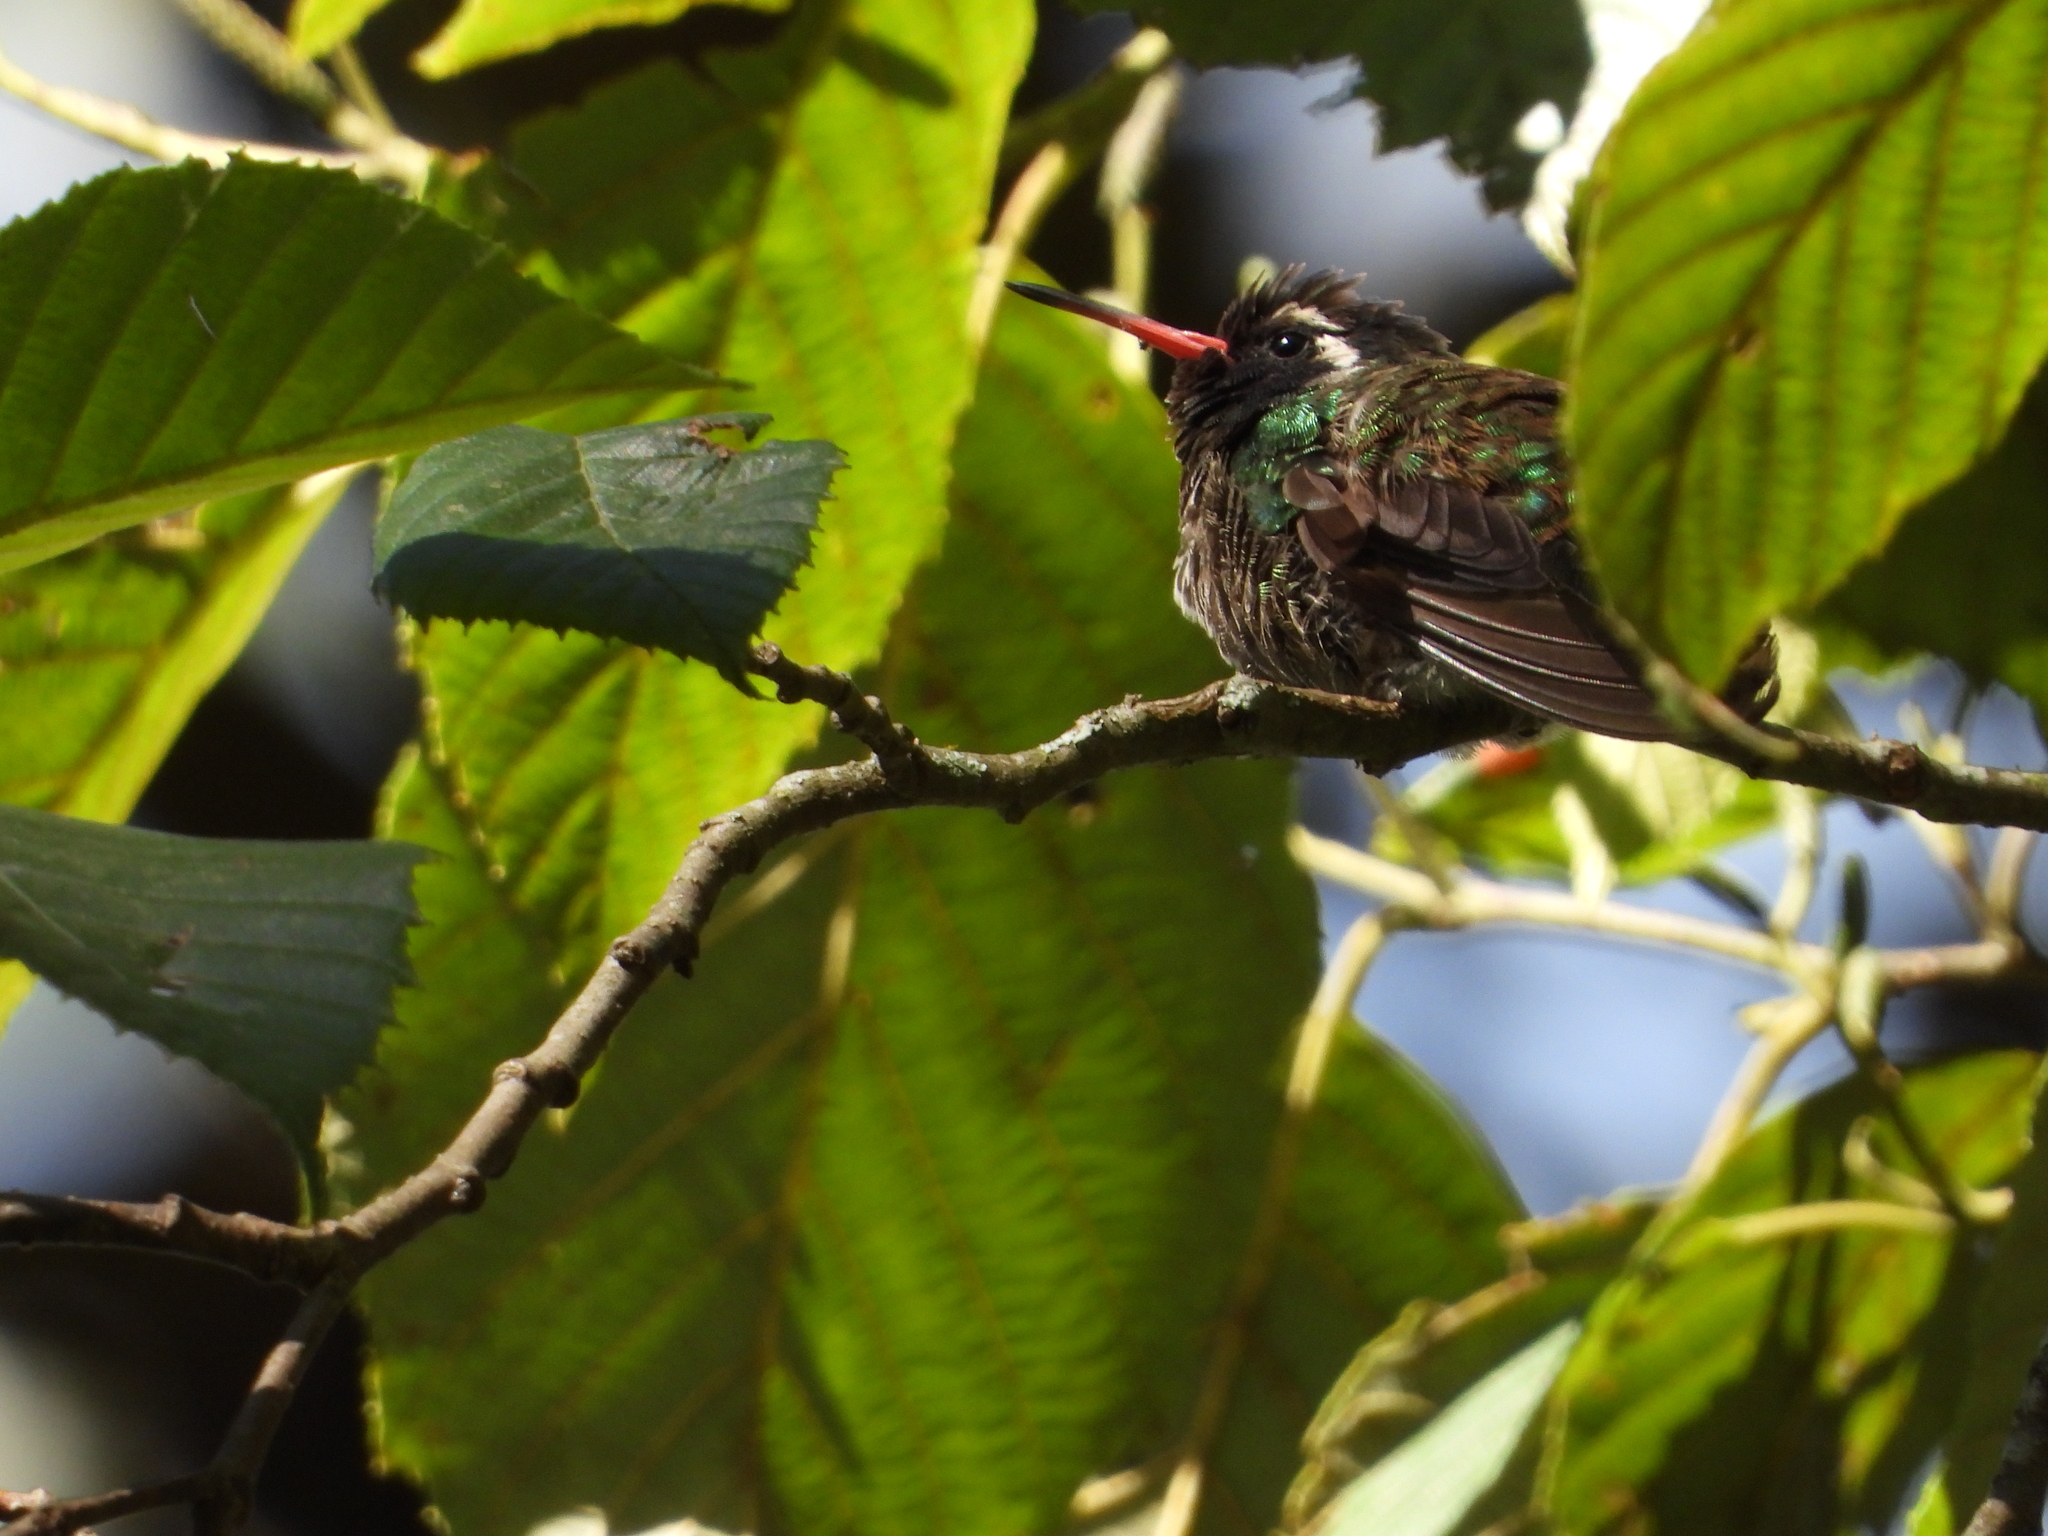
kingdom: Animalia
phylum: Chordata
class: Aves
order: Apodiformes
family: Trochilidae
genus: Basilinna
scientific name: Basilinna leucotis
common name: White-eared hummingbird
